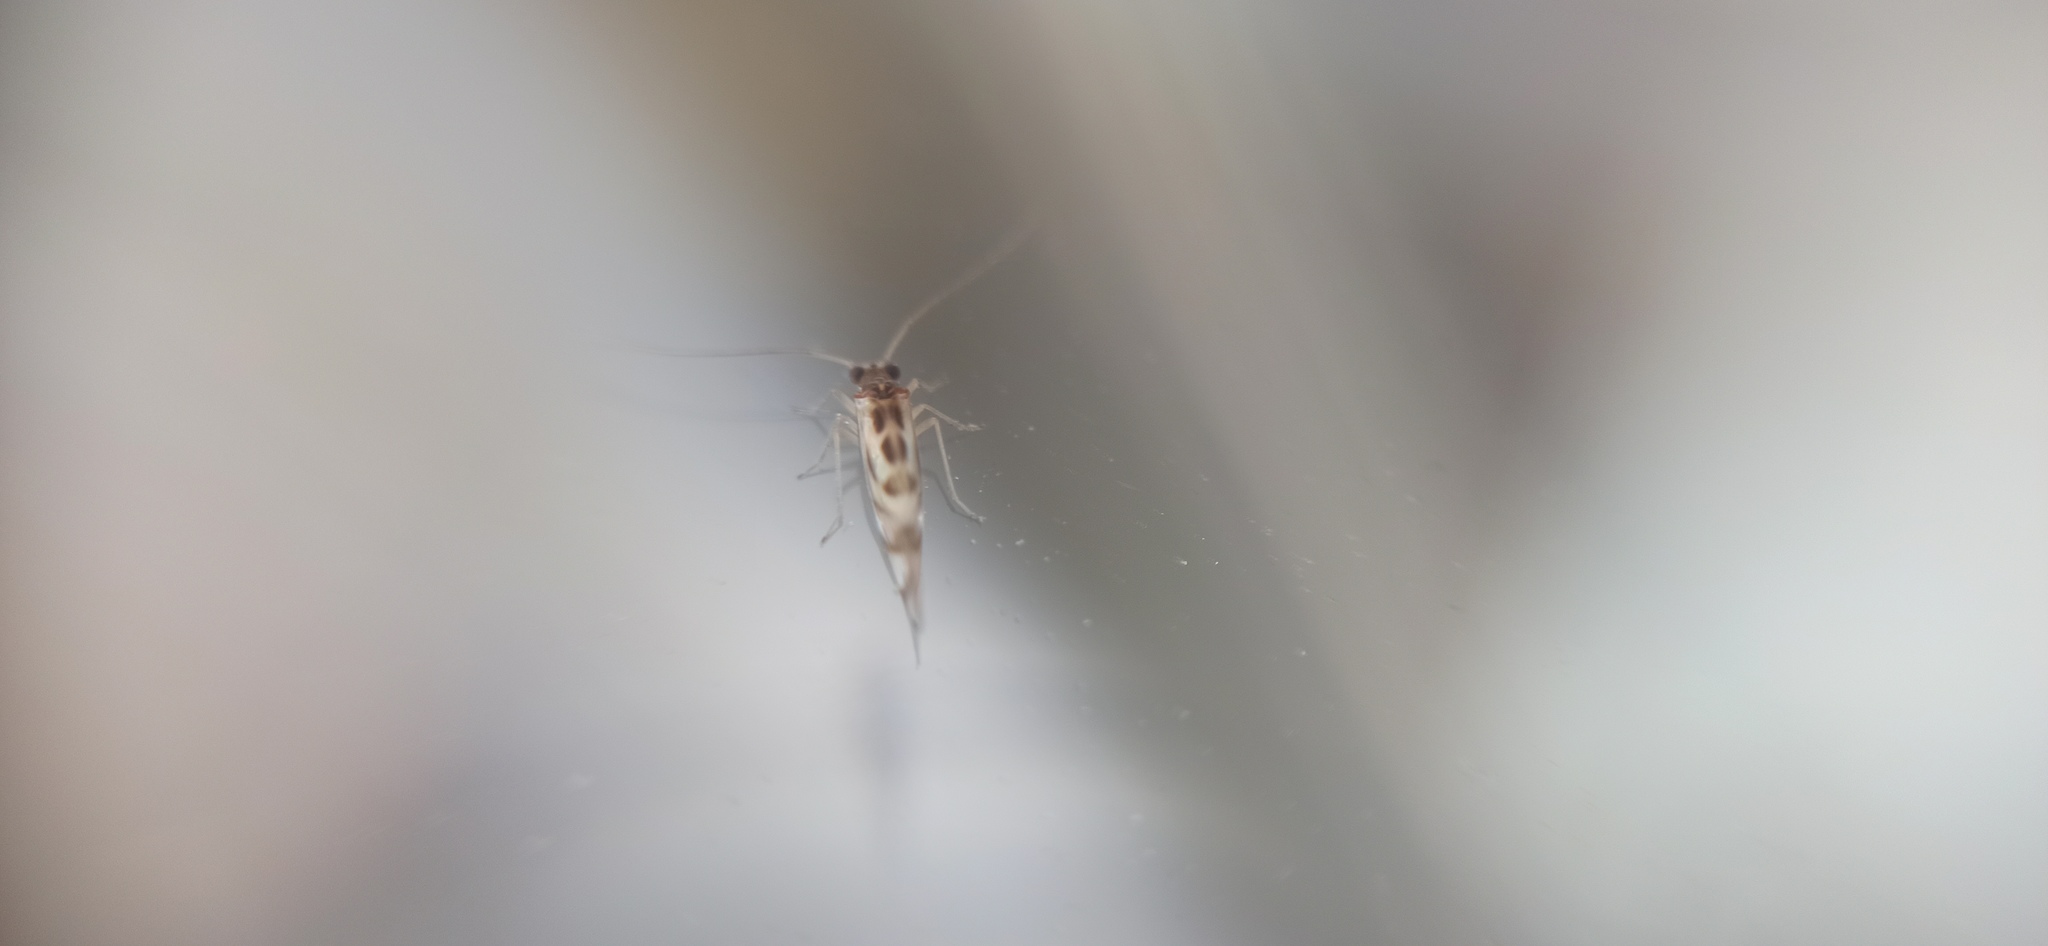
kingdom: Animalia
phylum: Arthropoda
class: Insecta
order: Psocodea
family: Stenopsocidae
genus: Graphopsocus
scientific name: Graphopsocus cruciatus
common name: Lizard bark louse
